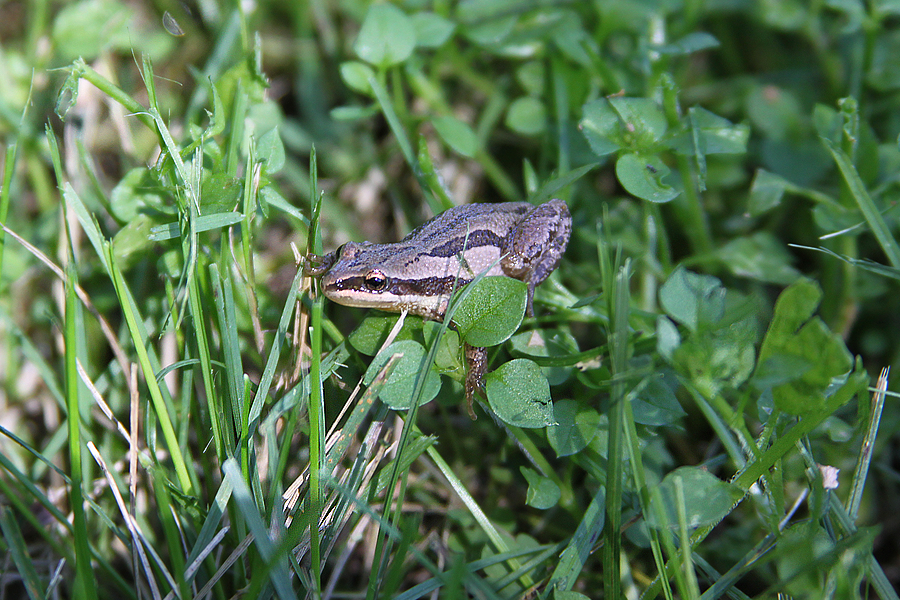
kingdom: Animalia
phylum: Chordata
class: Amphibia
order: Anura
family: Hylidae
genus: Pseudacris
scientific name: Pseudacris maculata
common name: Boreal chorus frog
